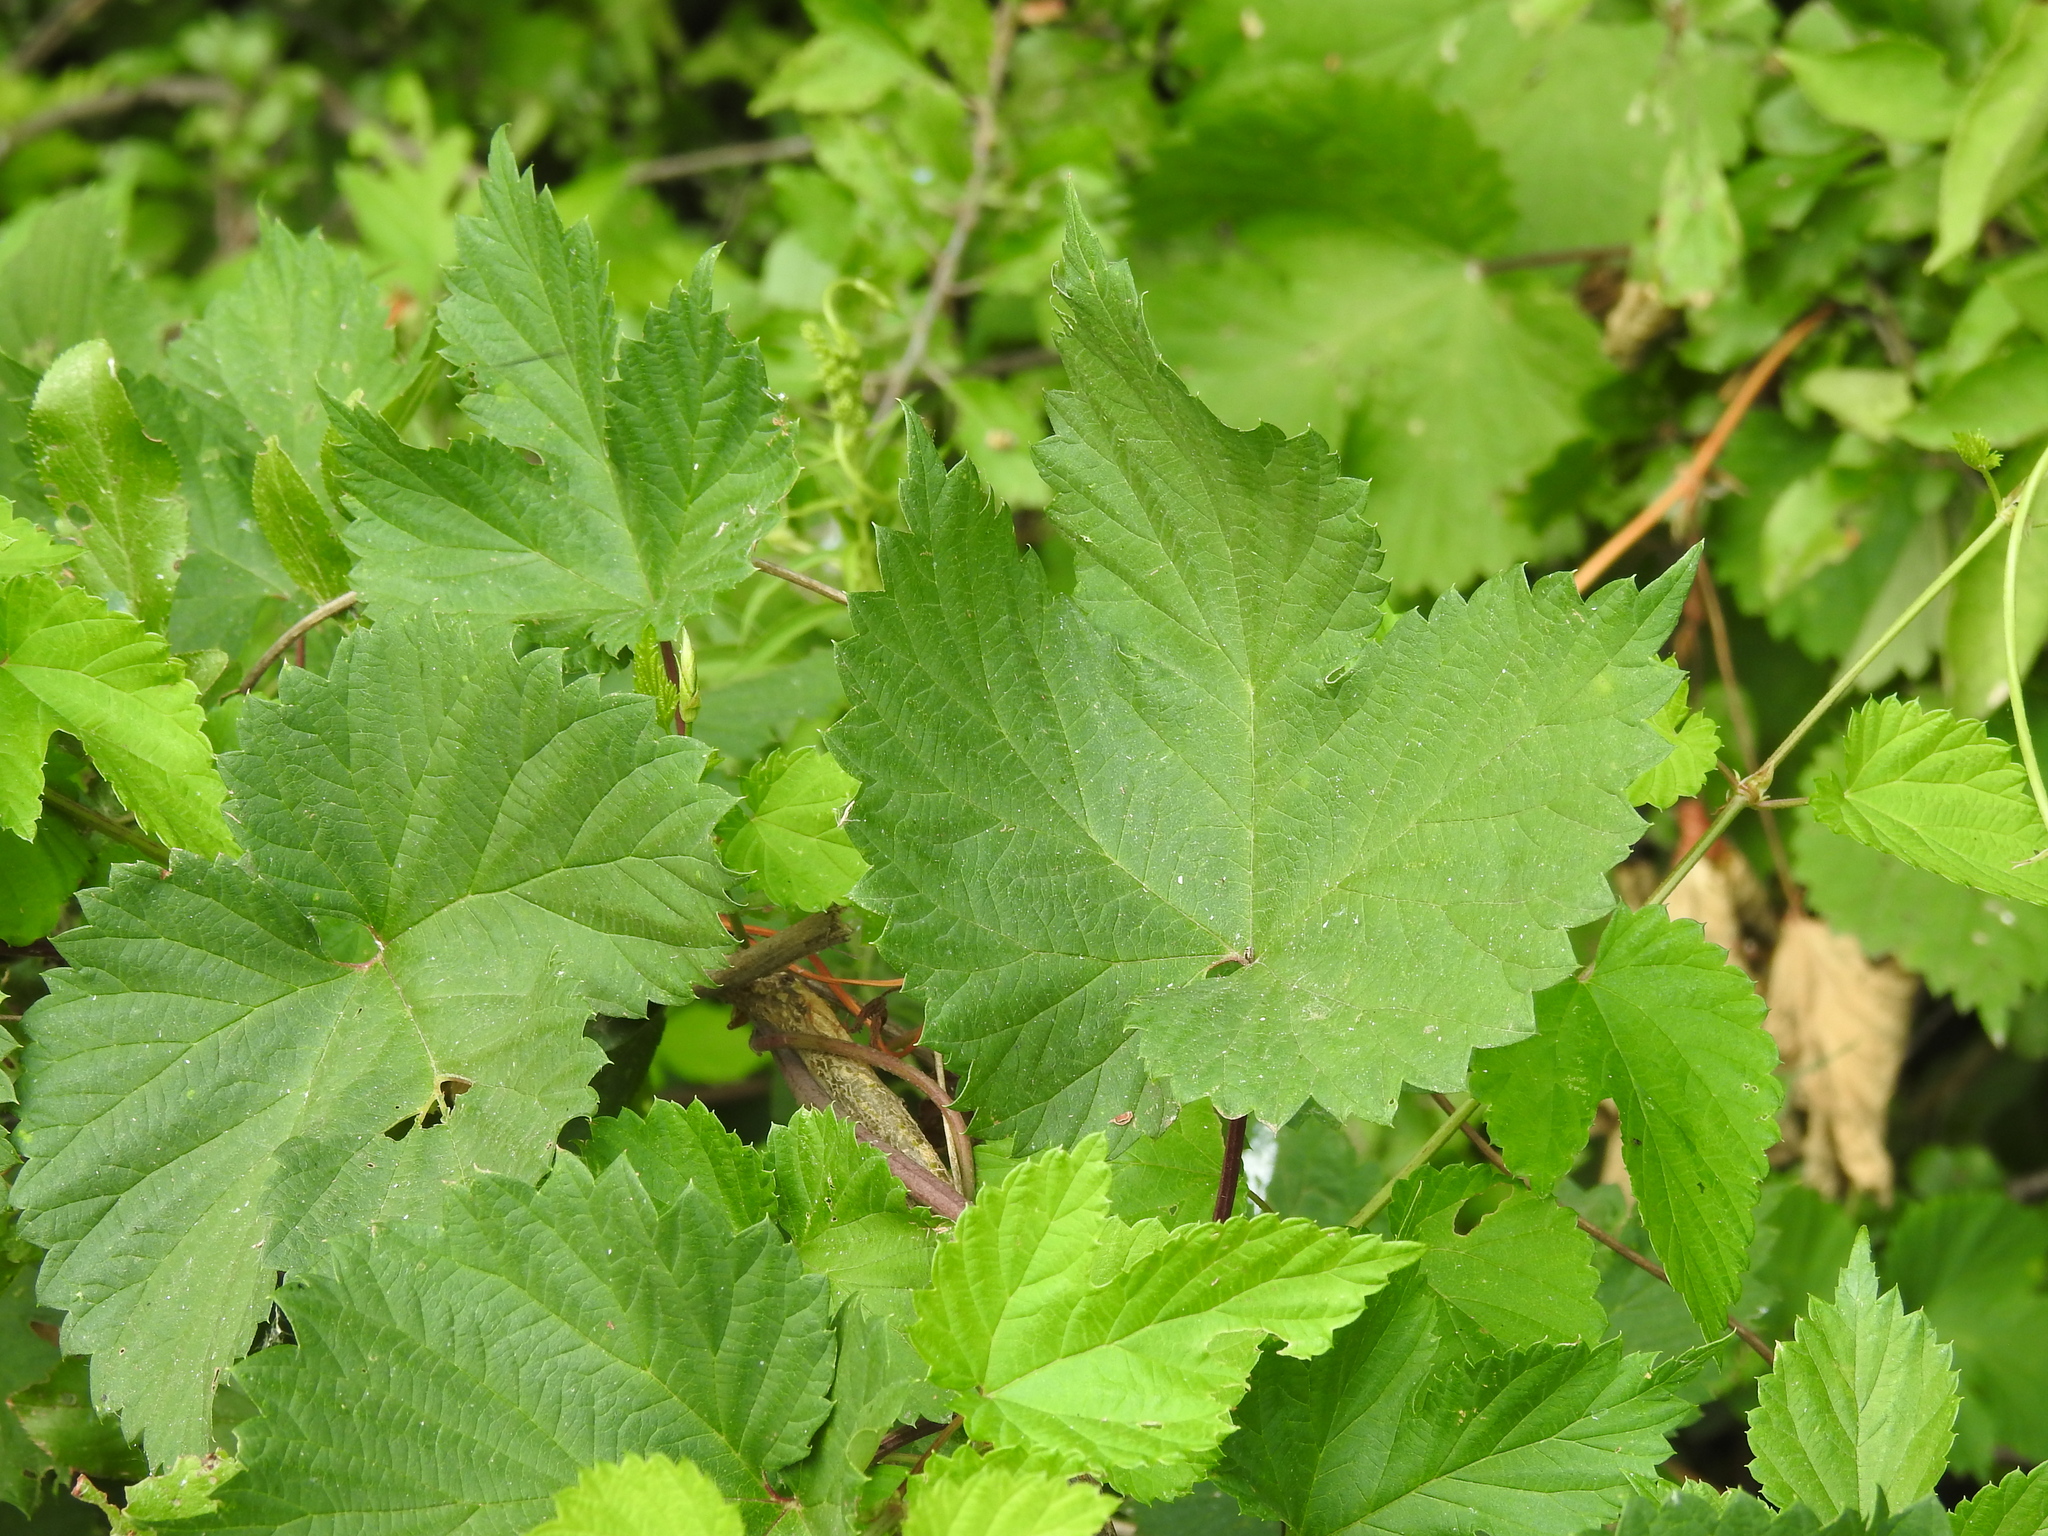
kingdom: Plantae
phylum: Tracheophyta
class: Magnoliopsida
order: Rosales
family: Cannabaceae
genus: Humulus
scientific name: Humulus lupulus
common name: Hop
